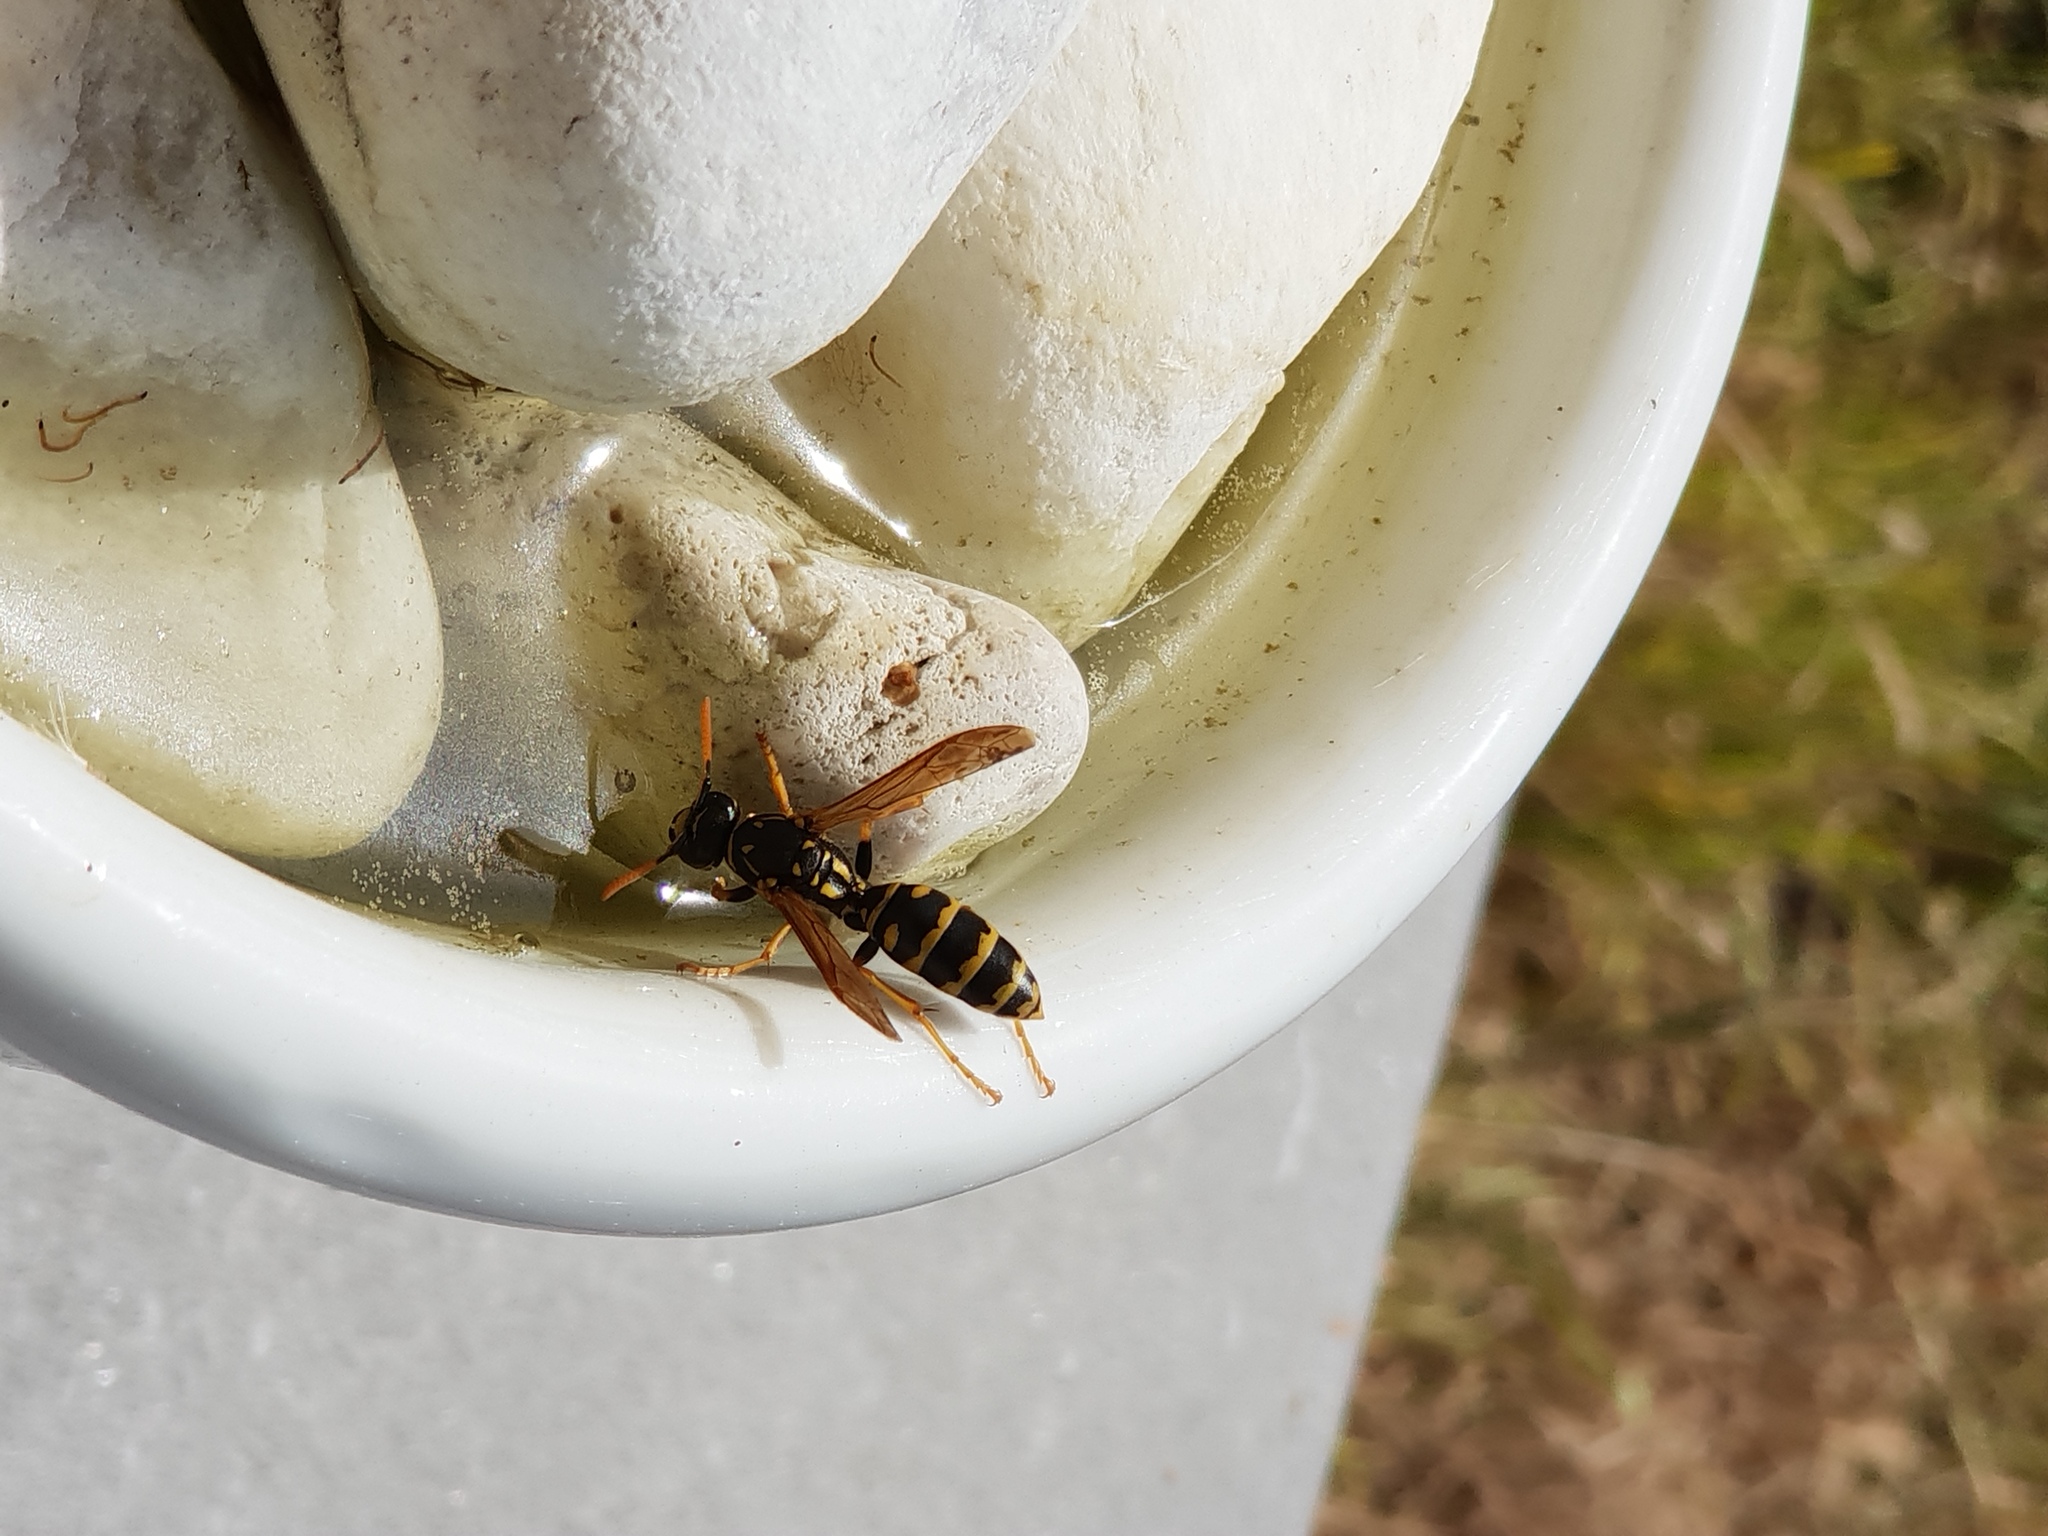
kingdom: Animalia
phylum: Arthropoda
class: Insecta
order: Hymenoptera
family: Eumenidae
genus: Polistes
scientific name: Polistes dominula
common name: Paper wasp
